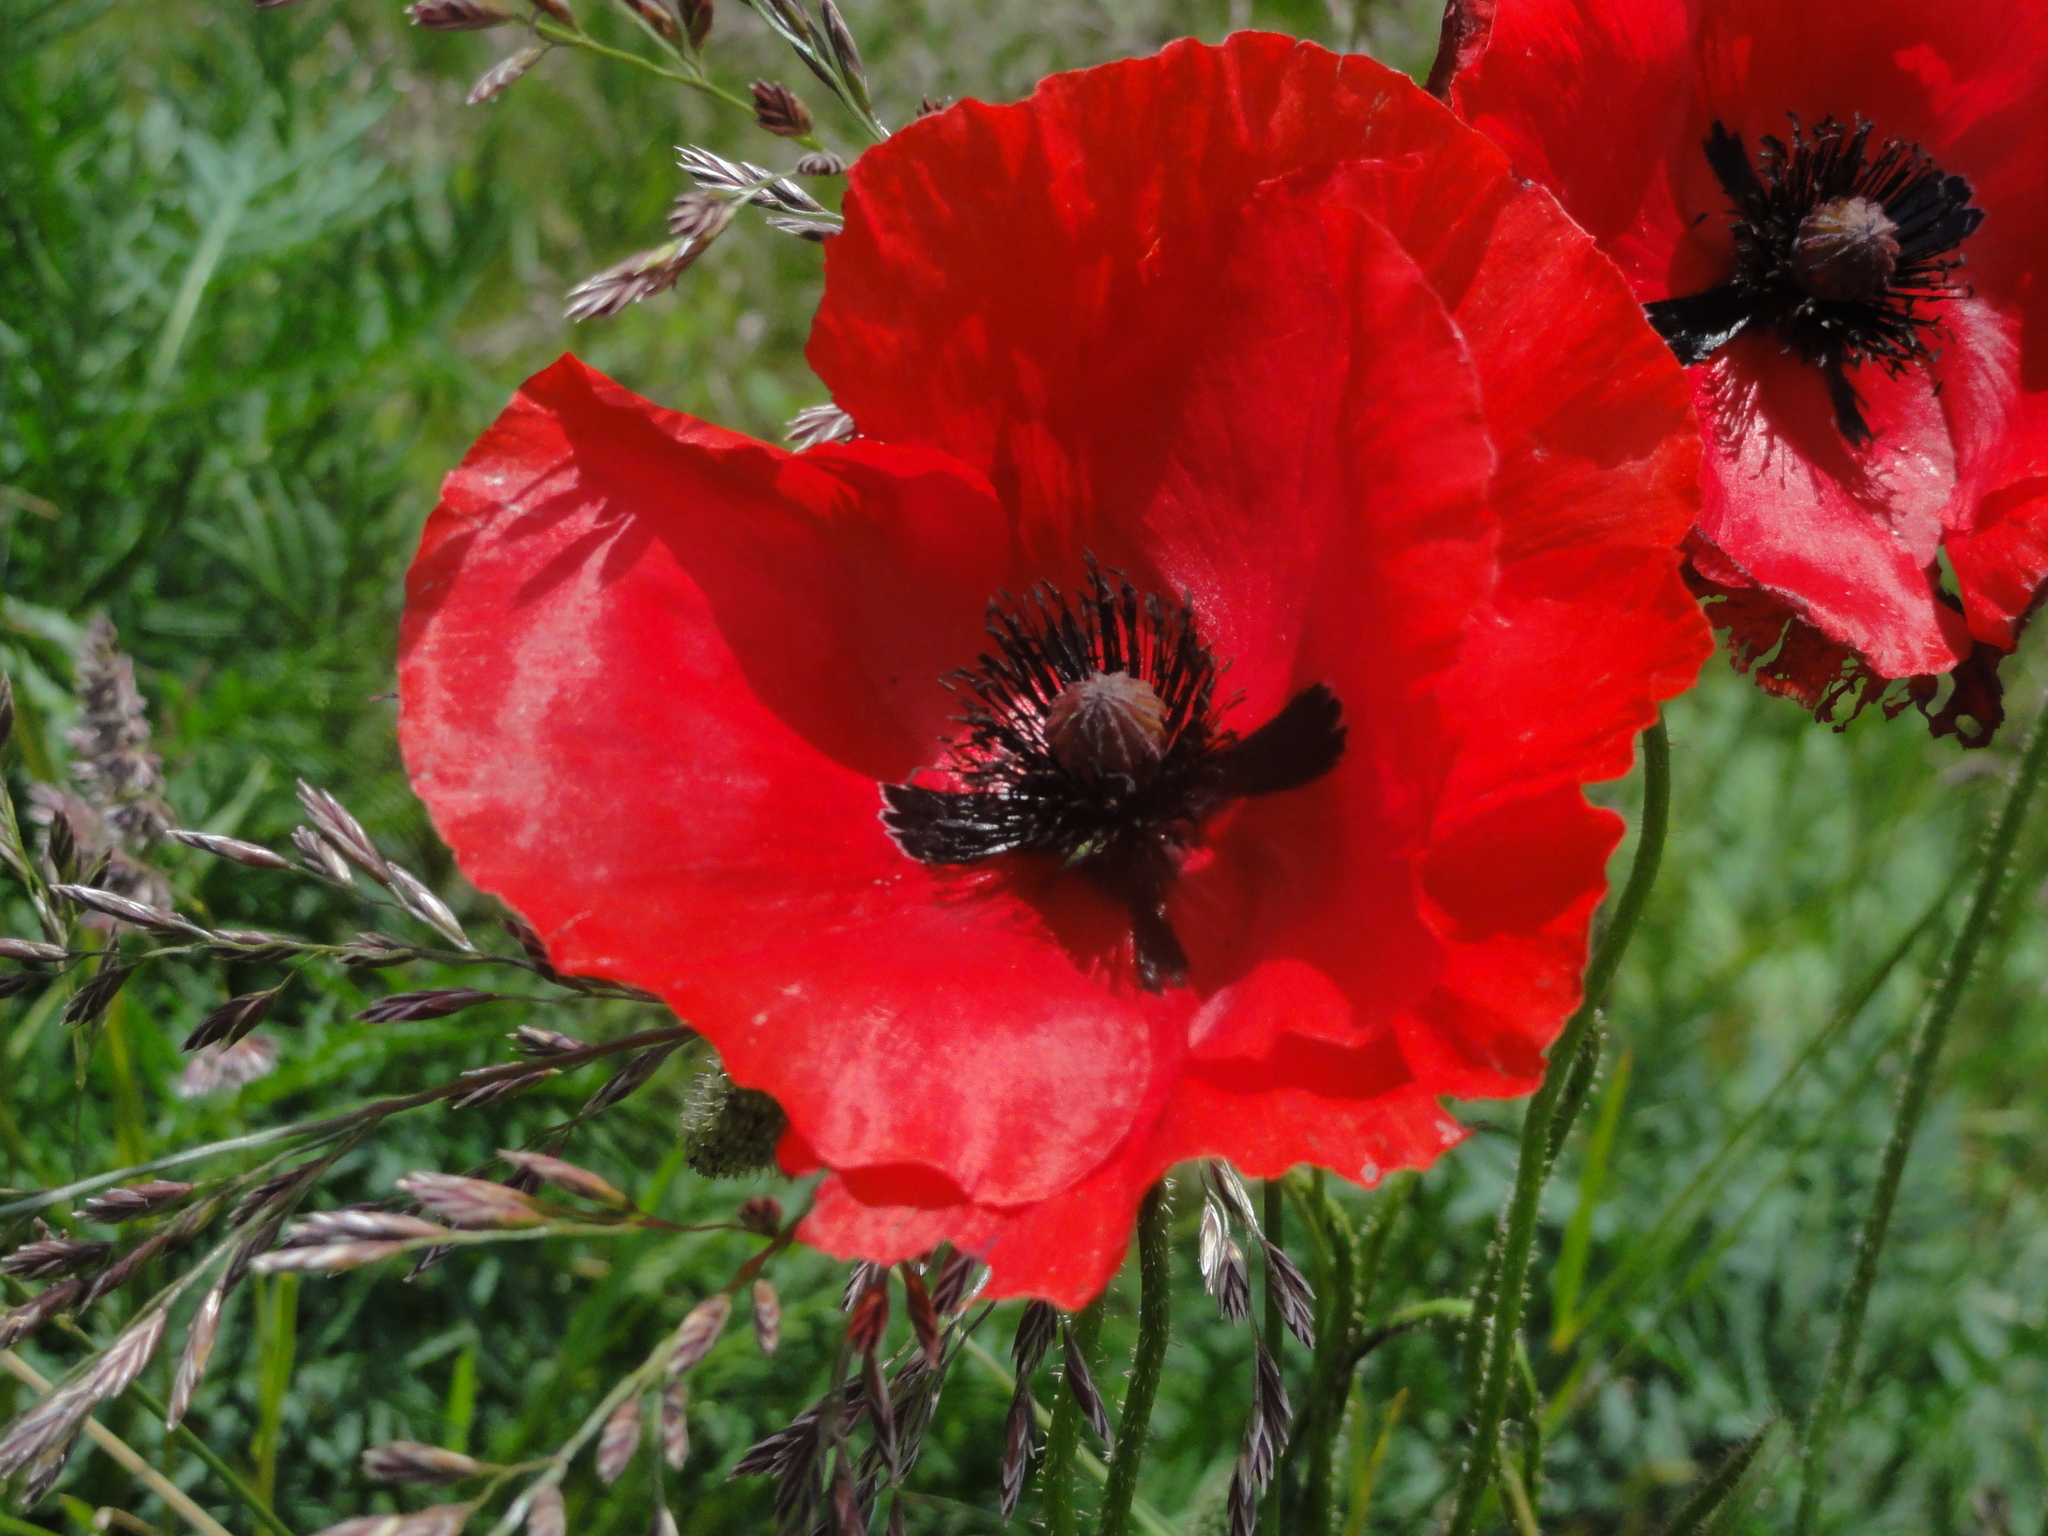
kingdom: Plantae
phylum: Tracheophyta
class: Magnoliopsida
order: Ranunculales
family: Papaveraceae
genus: Papaver
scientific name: Papaver rhoeas
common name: Corn poppy
